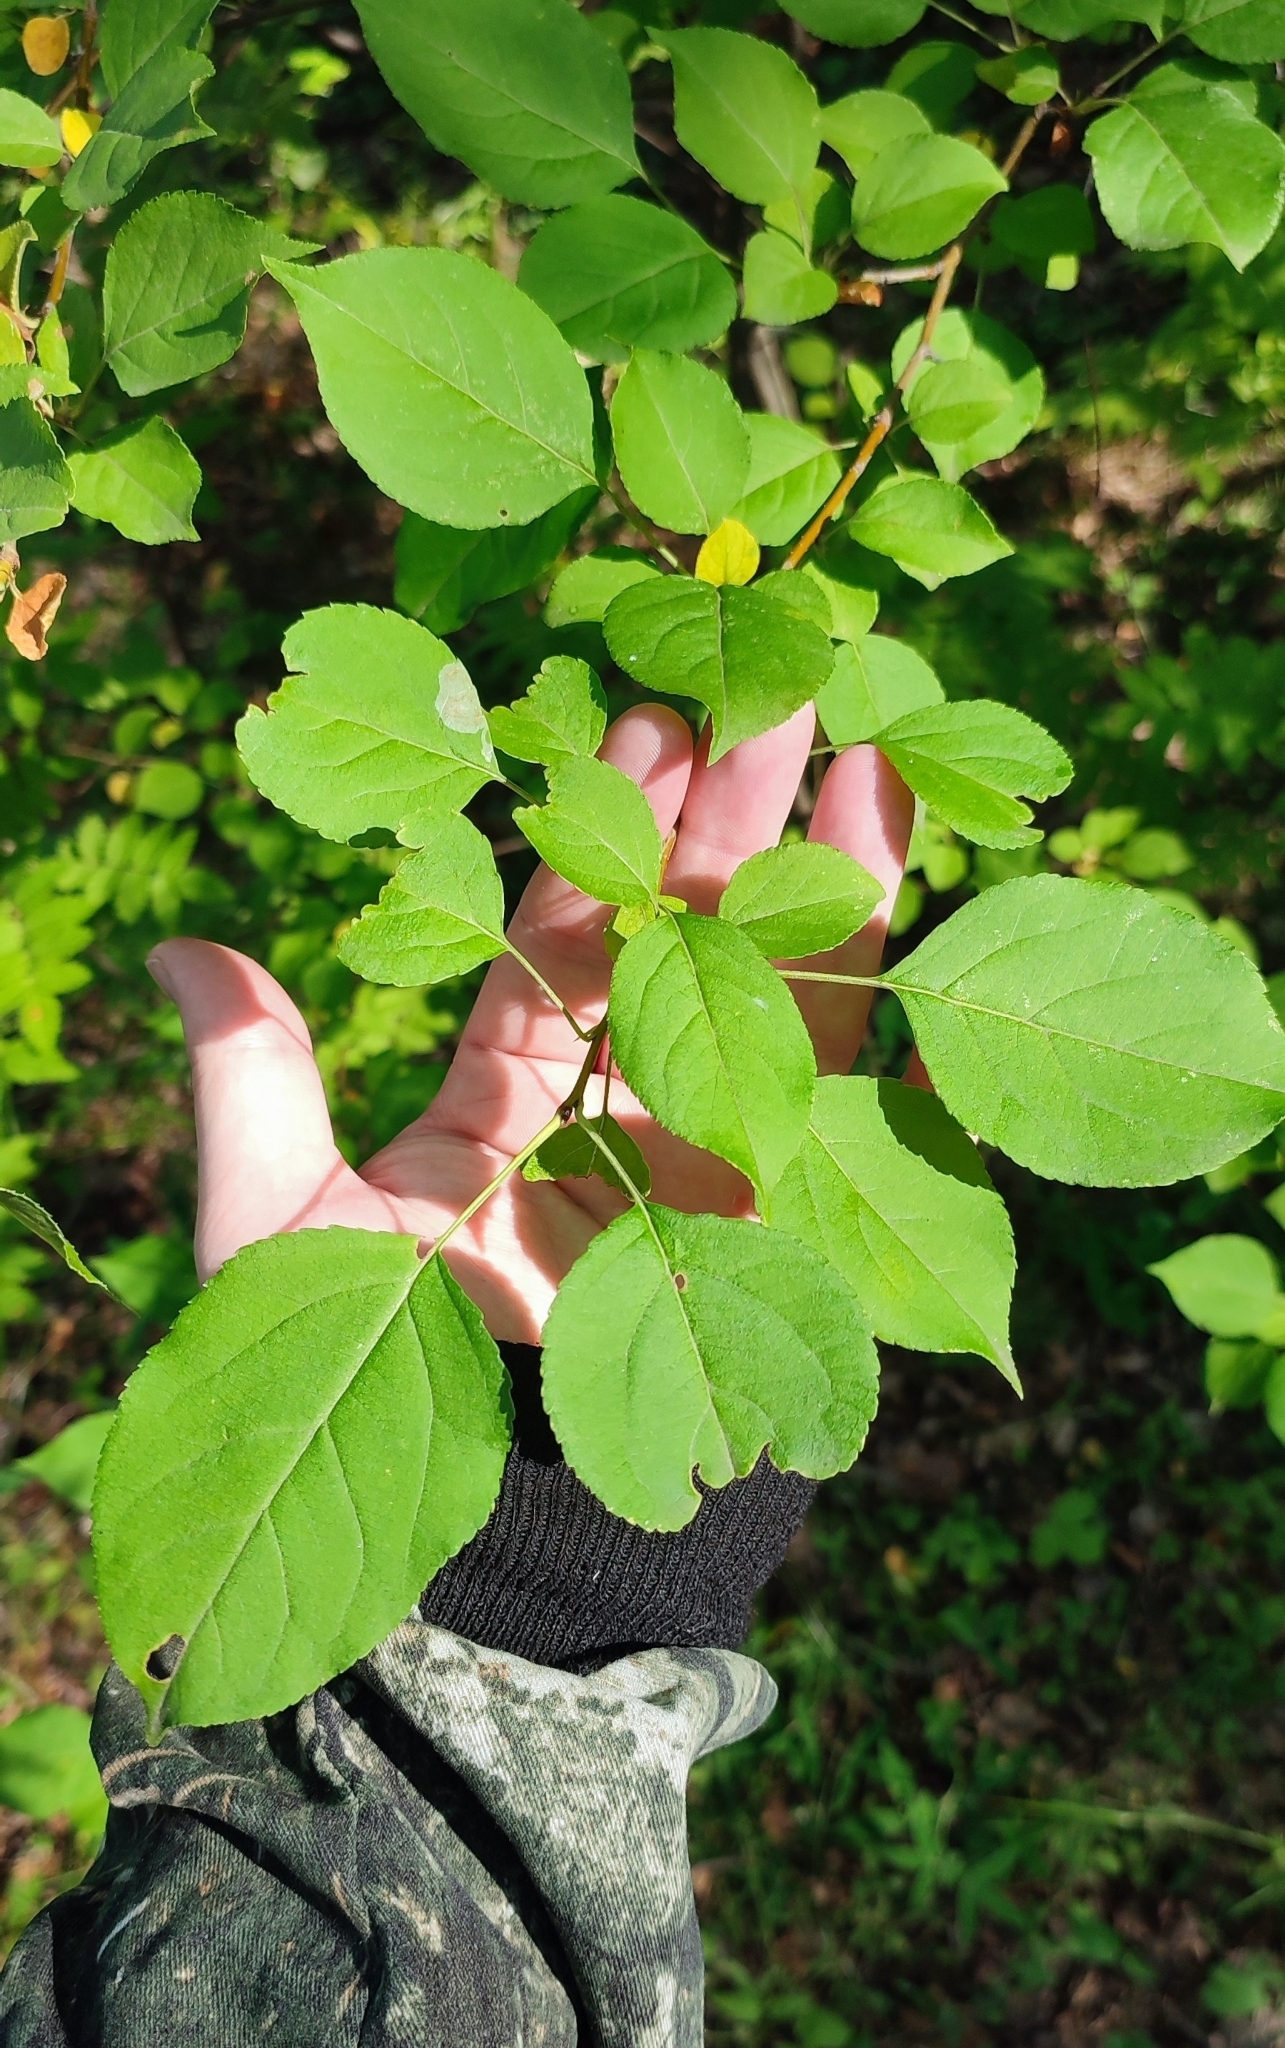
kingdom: Plantae
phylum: Tracheophyta
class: Magnoliopsida
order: Rosales
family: Rosaceae
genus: Malus
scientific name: Malus baccata
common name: Siberian crab
